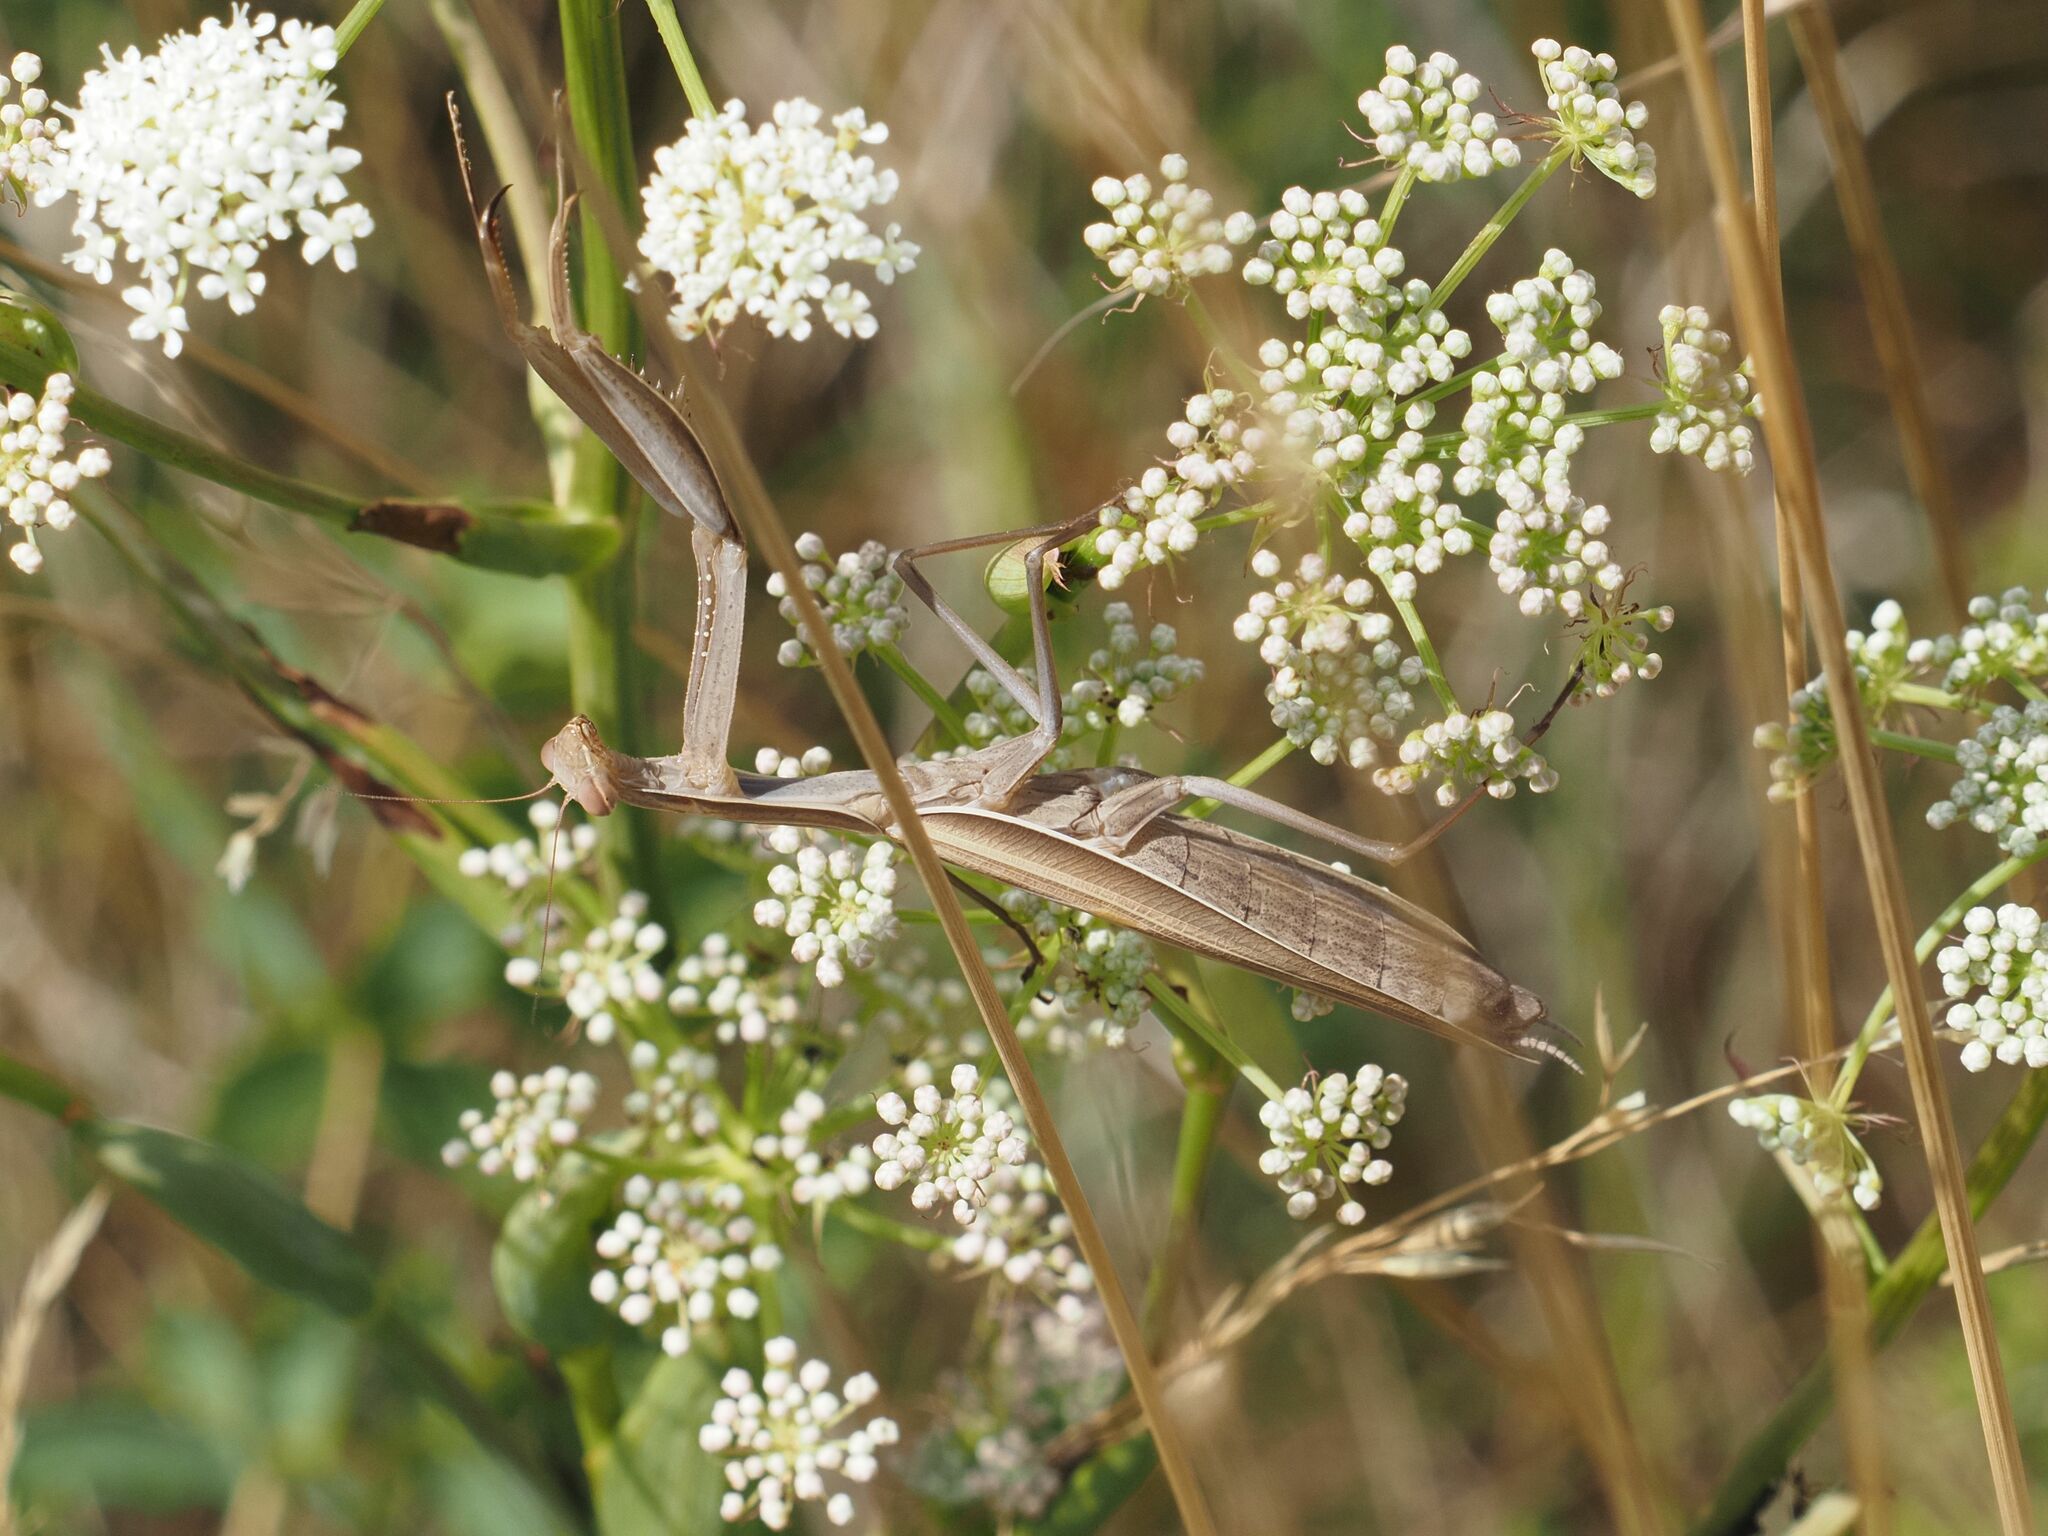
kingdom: Animalia
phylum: Arthropoda
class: Insecta
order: Mantodea
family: Mantidae
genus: Mantis
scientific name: Mantis religiosa
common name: Praying mantis
